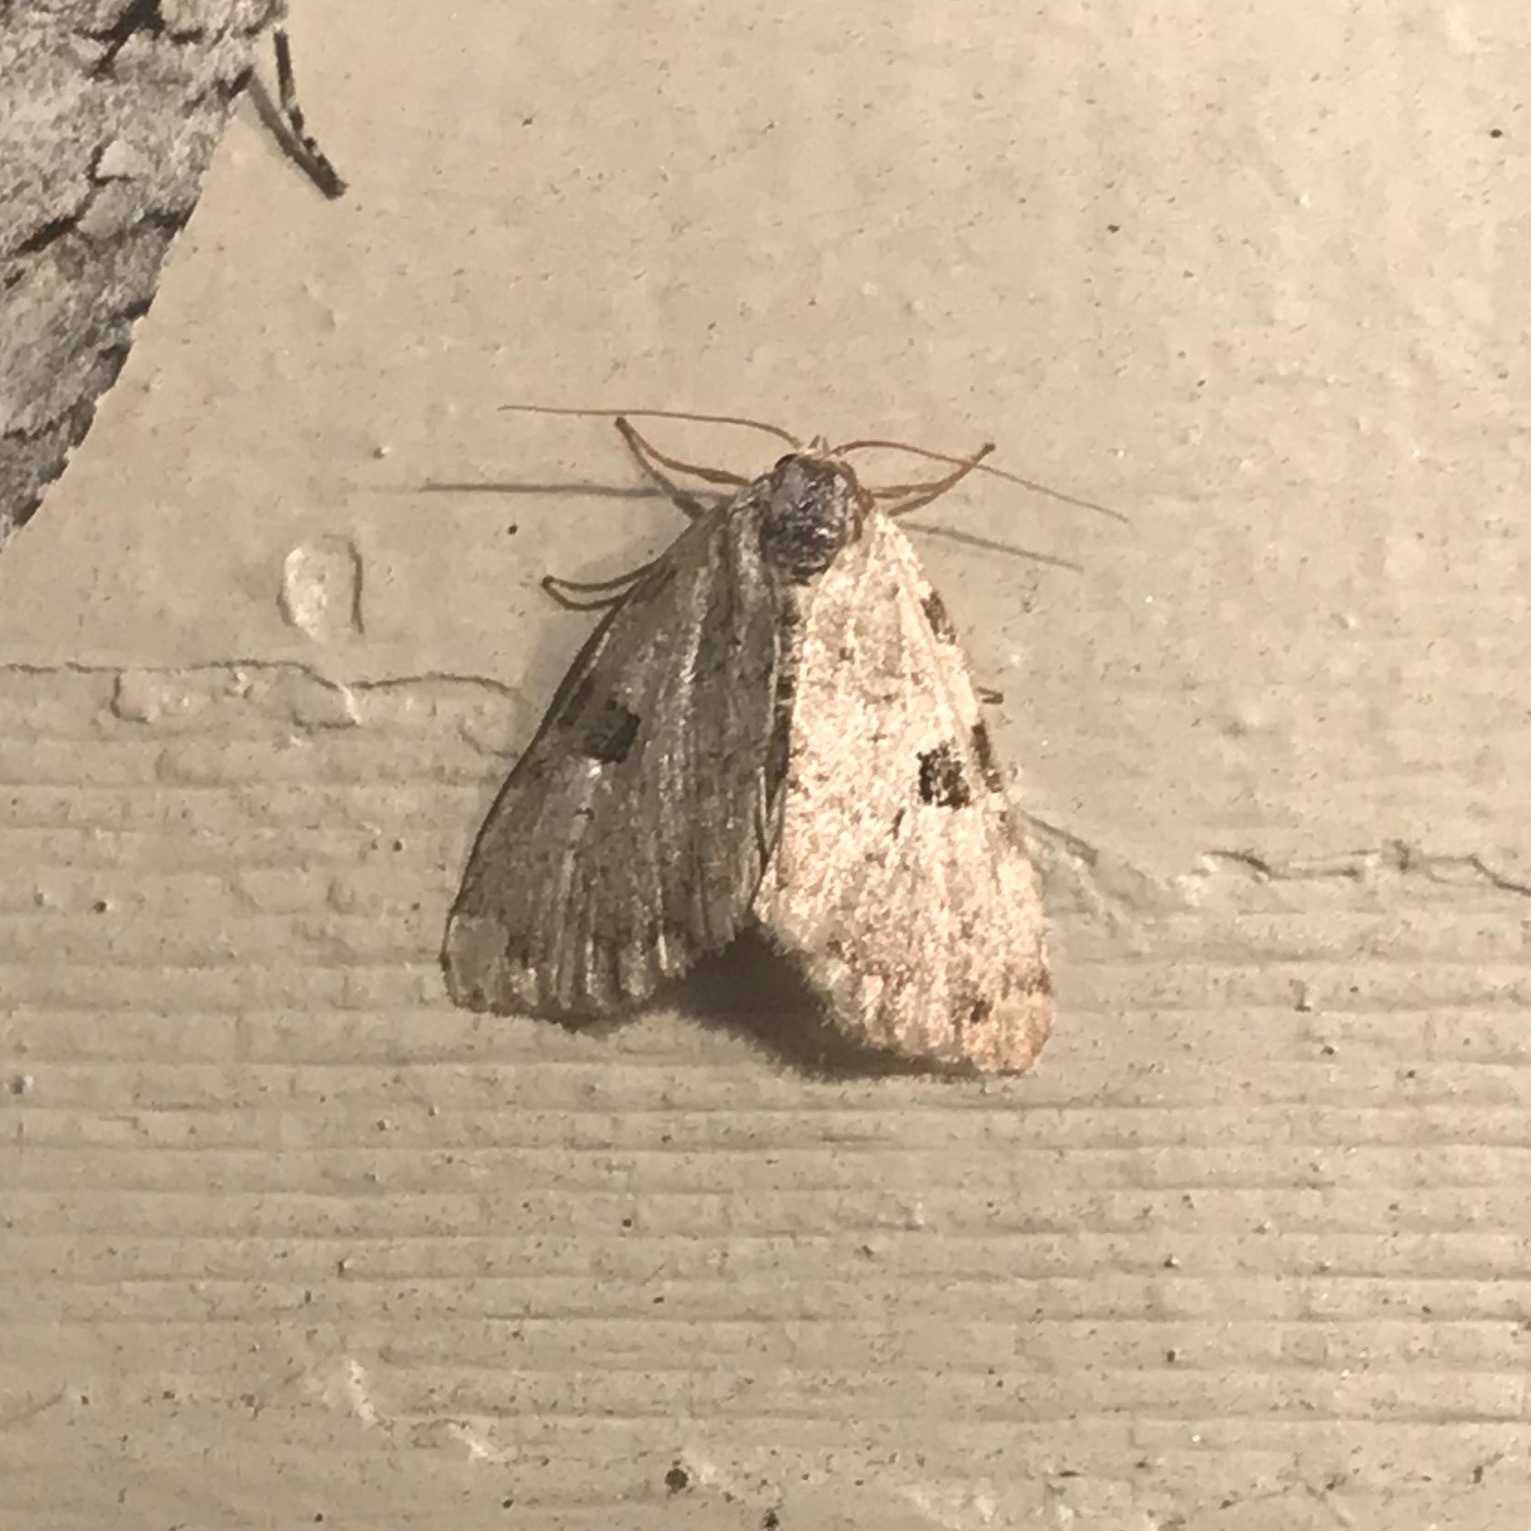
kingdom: Animalia
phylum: Arthropoda
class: Insecta
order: Lepidoptera
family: Noctuidae
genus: Leuconycta
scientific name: Leuconycta diphteroides
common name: Green leuconycta moth
